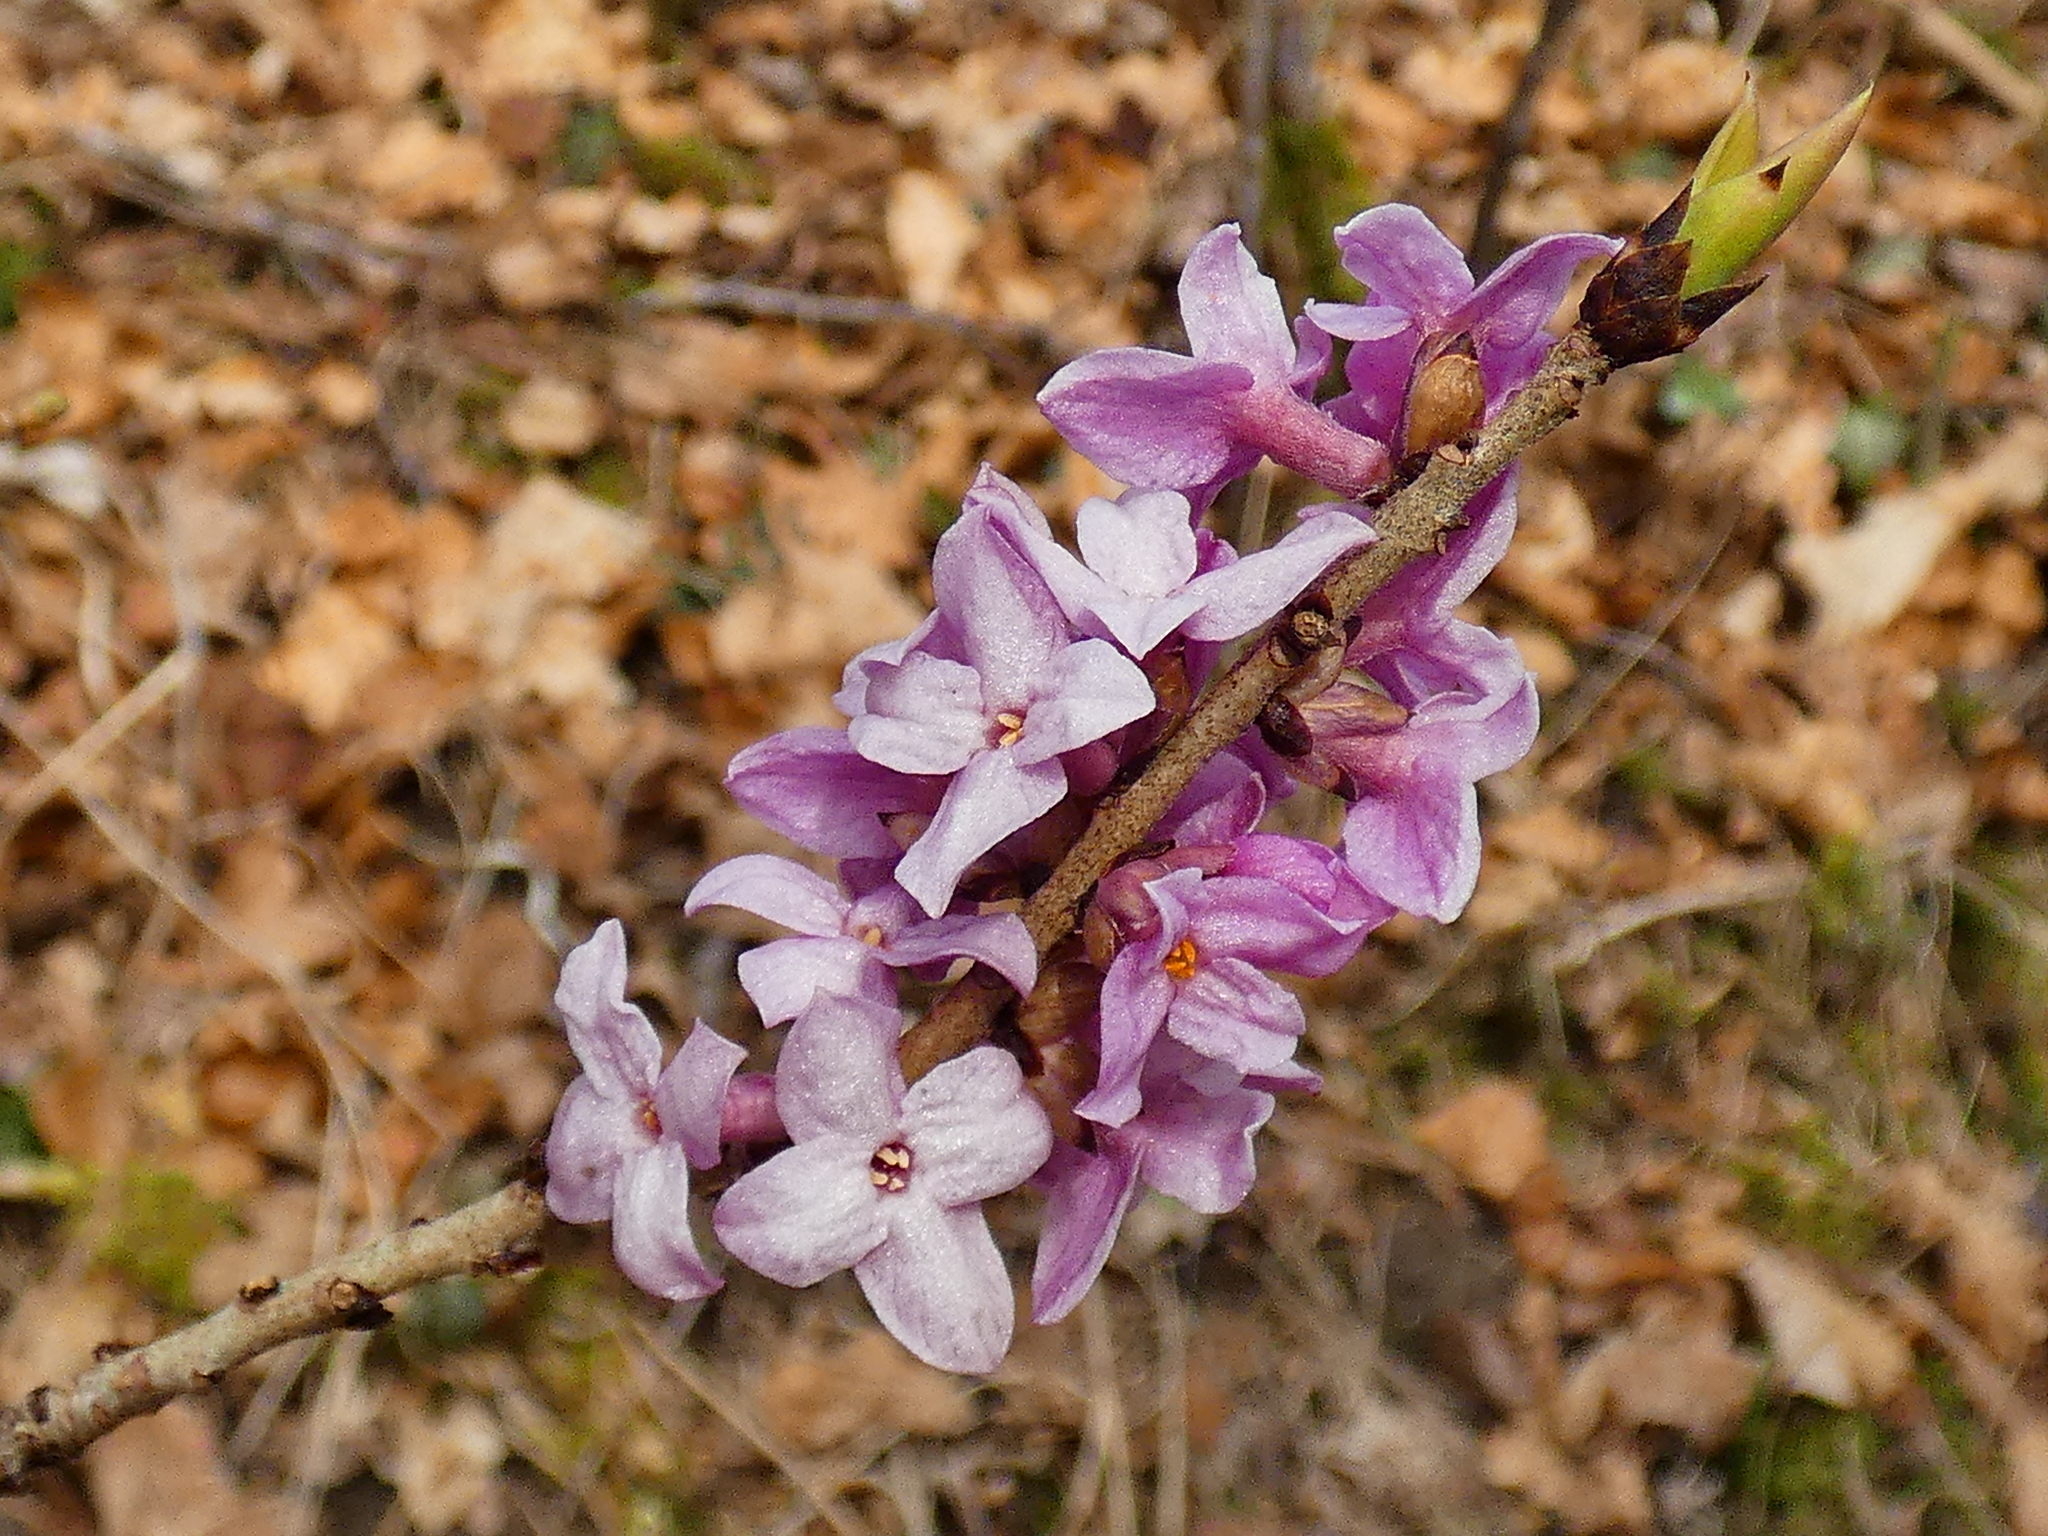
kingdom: Plantae
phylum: Tracheophyta
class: Magnoliopsida
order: Malvales
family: Thymelaeaceae
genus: Daphne
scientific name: Daphne mezereum
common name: Mezereon
